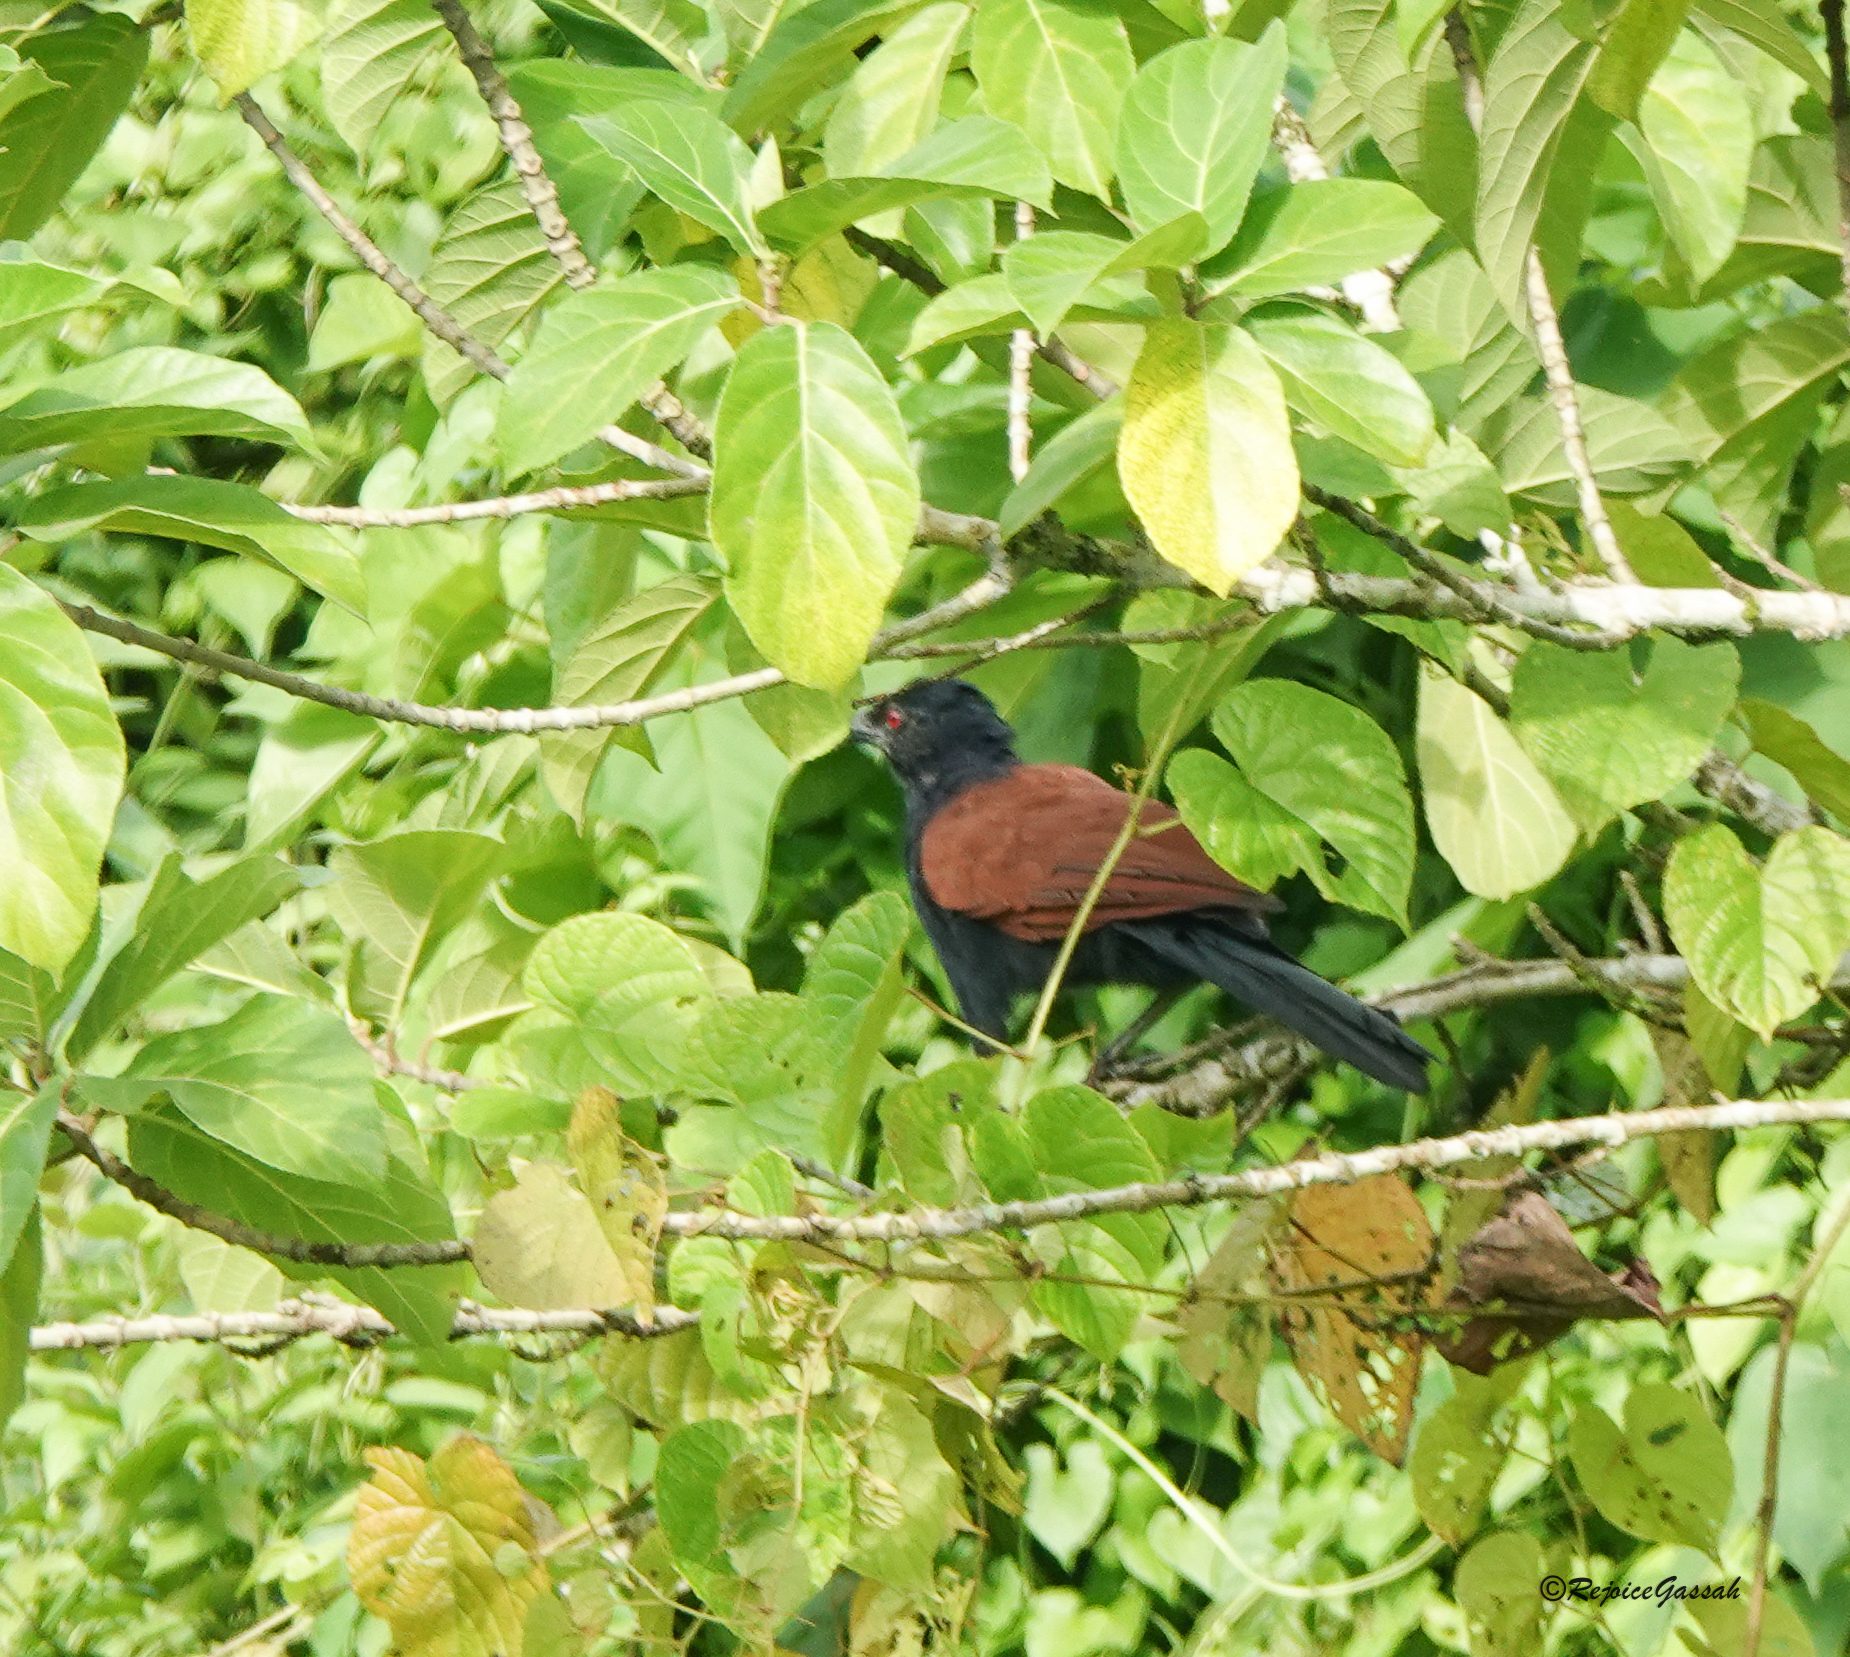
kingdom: Animalia
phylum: Chordata
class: Aves
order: Cuculiformes
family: Cuculidae
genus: Centropus
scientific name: Centropus sinensis
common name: Greater coucal
